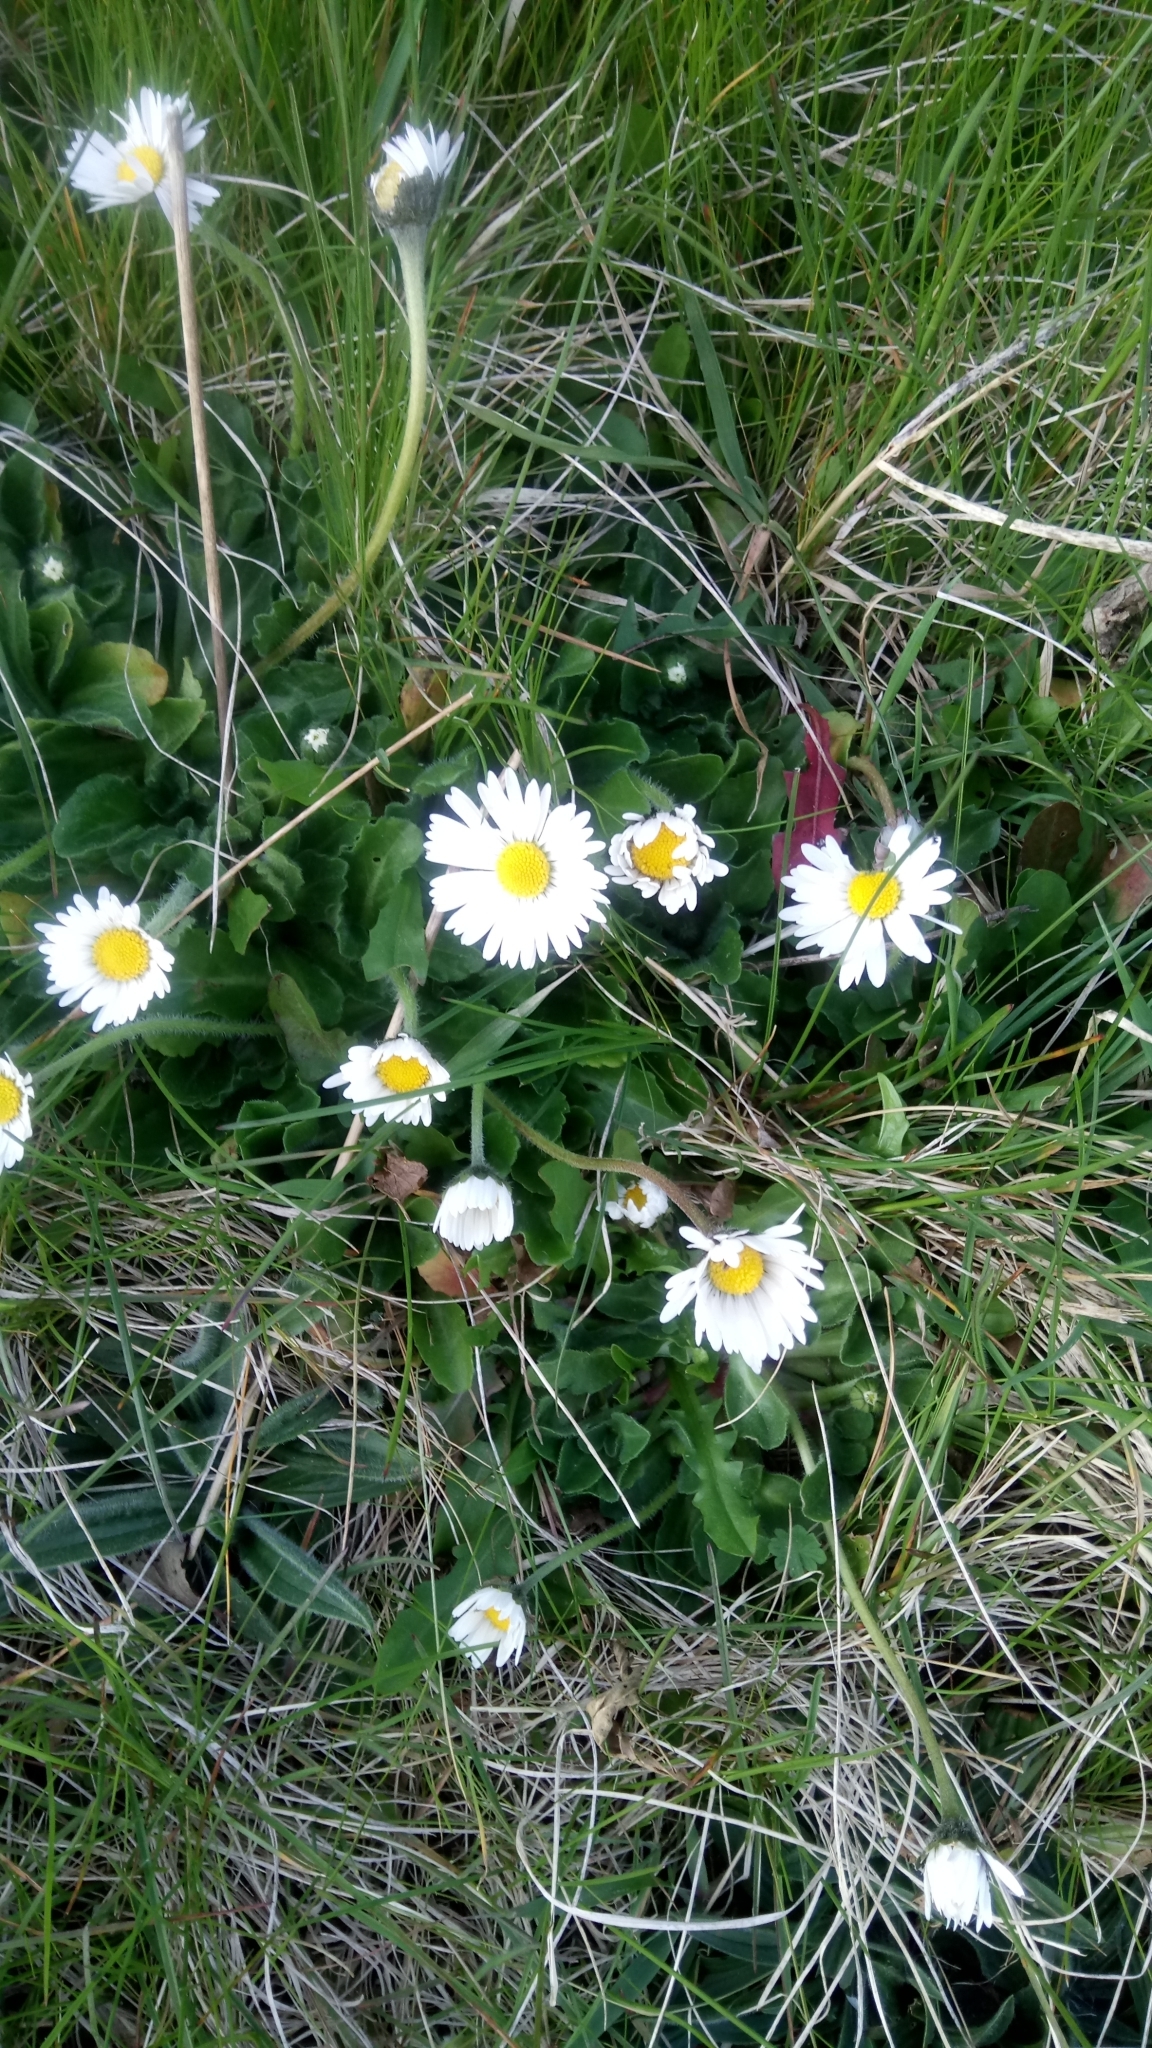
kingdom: Plantae
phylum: Tracheophyta
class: Magnoliopsida
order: Asterales
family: Asteraceae
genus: Bellis
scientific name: Bellis perennis
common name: Lawndaisy
